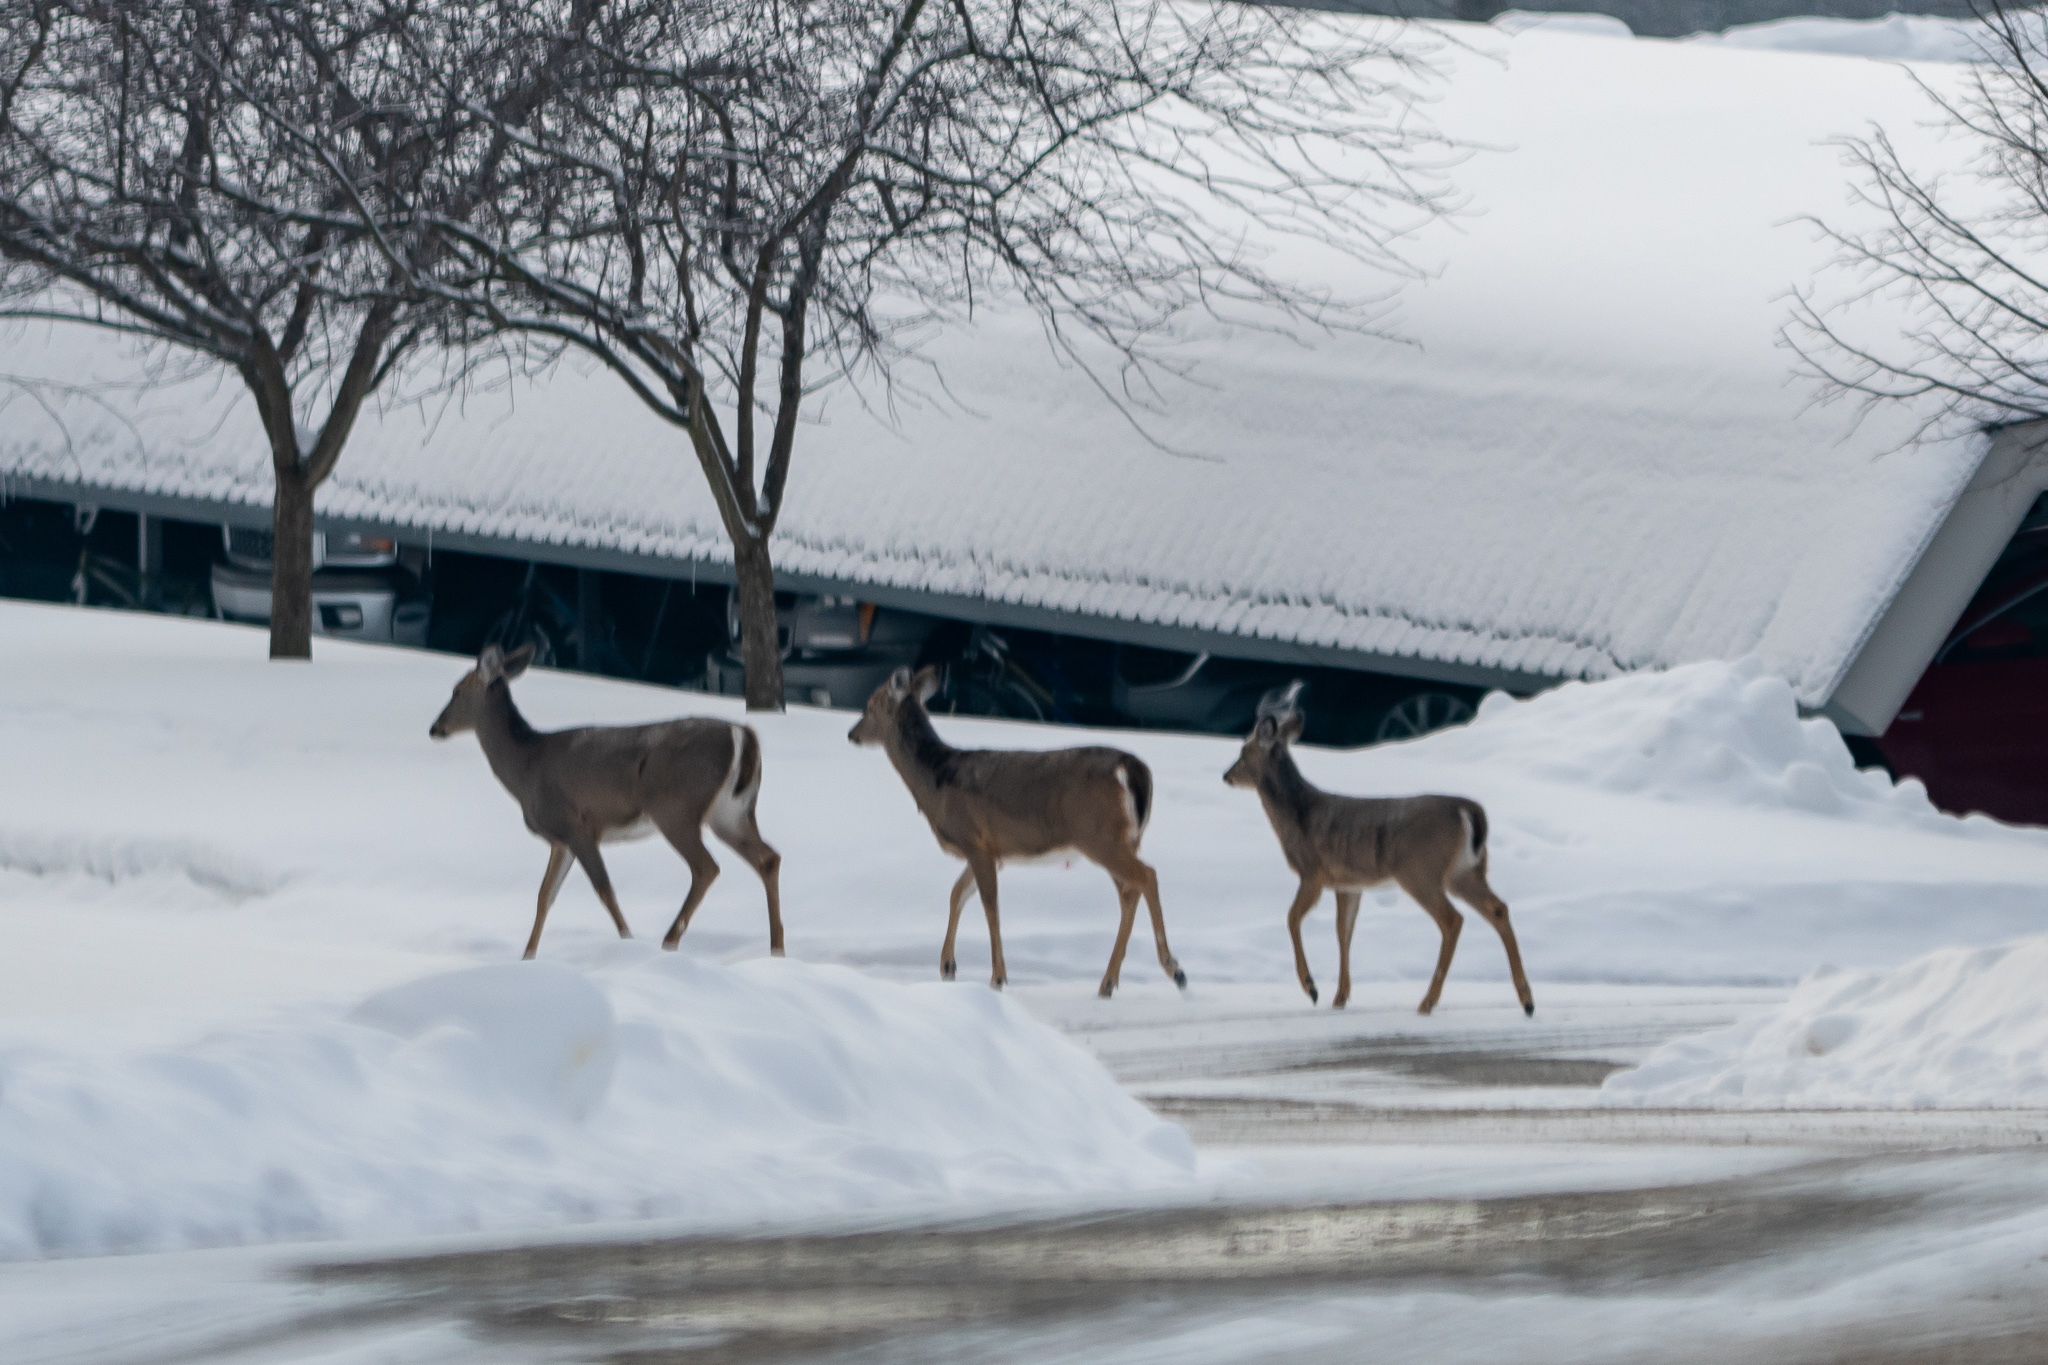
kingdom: Animalia
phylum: Chordata
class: Mammalia
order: Artiodactyla
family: Cervidae
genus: Odocoileus
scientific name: Odocoileus virginianus
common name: White-tailed deer
